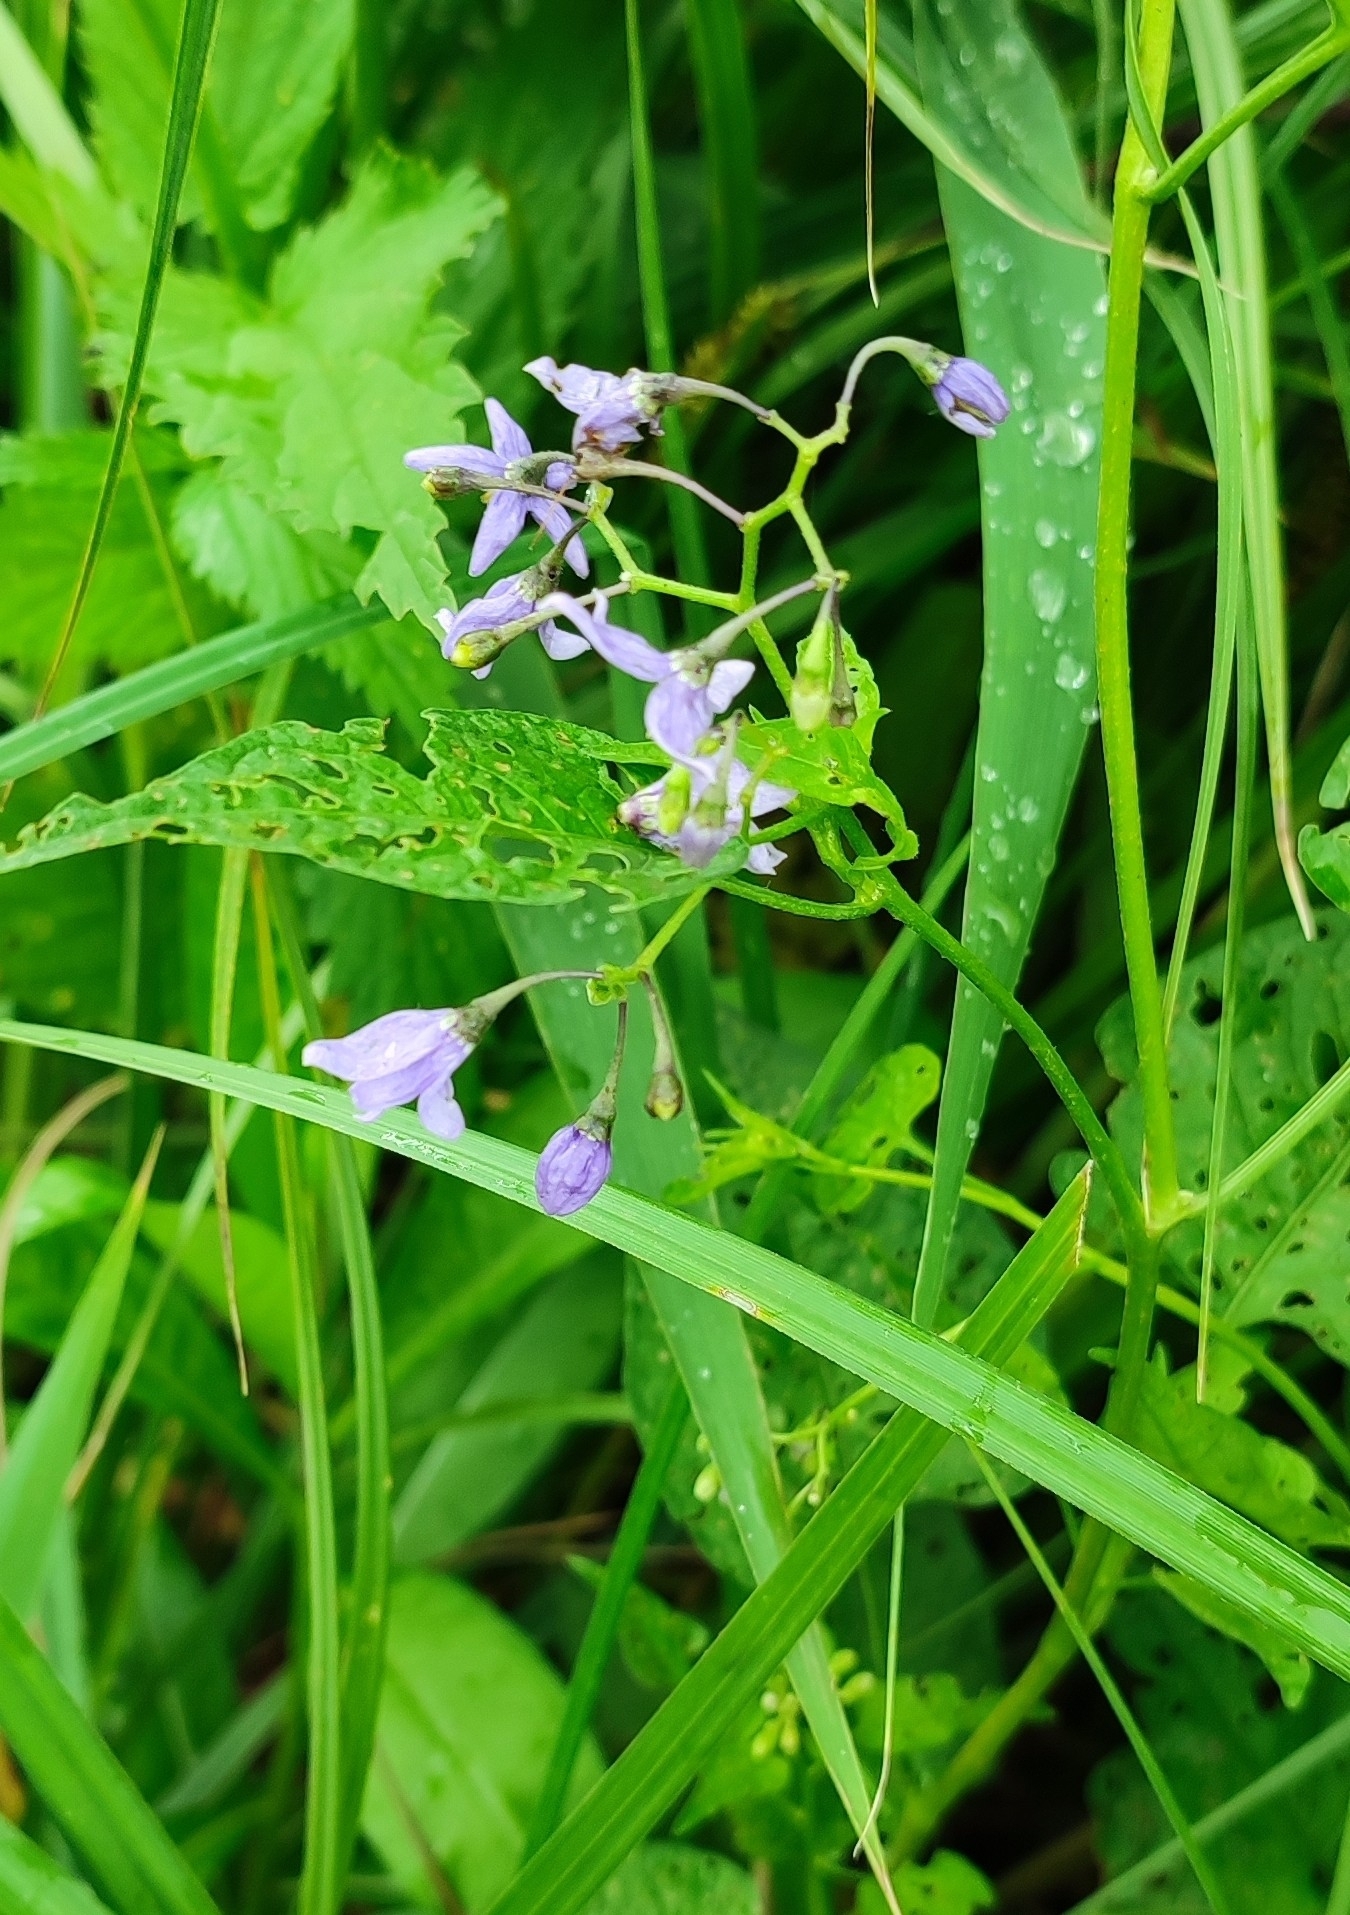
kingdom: Plantae
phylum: Tracheophyta
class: Magnoliopsida
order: Solanales
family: Solanaceae
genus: Solanum
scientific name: Solanum dulcamara
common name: Climbing nightshade
